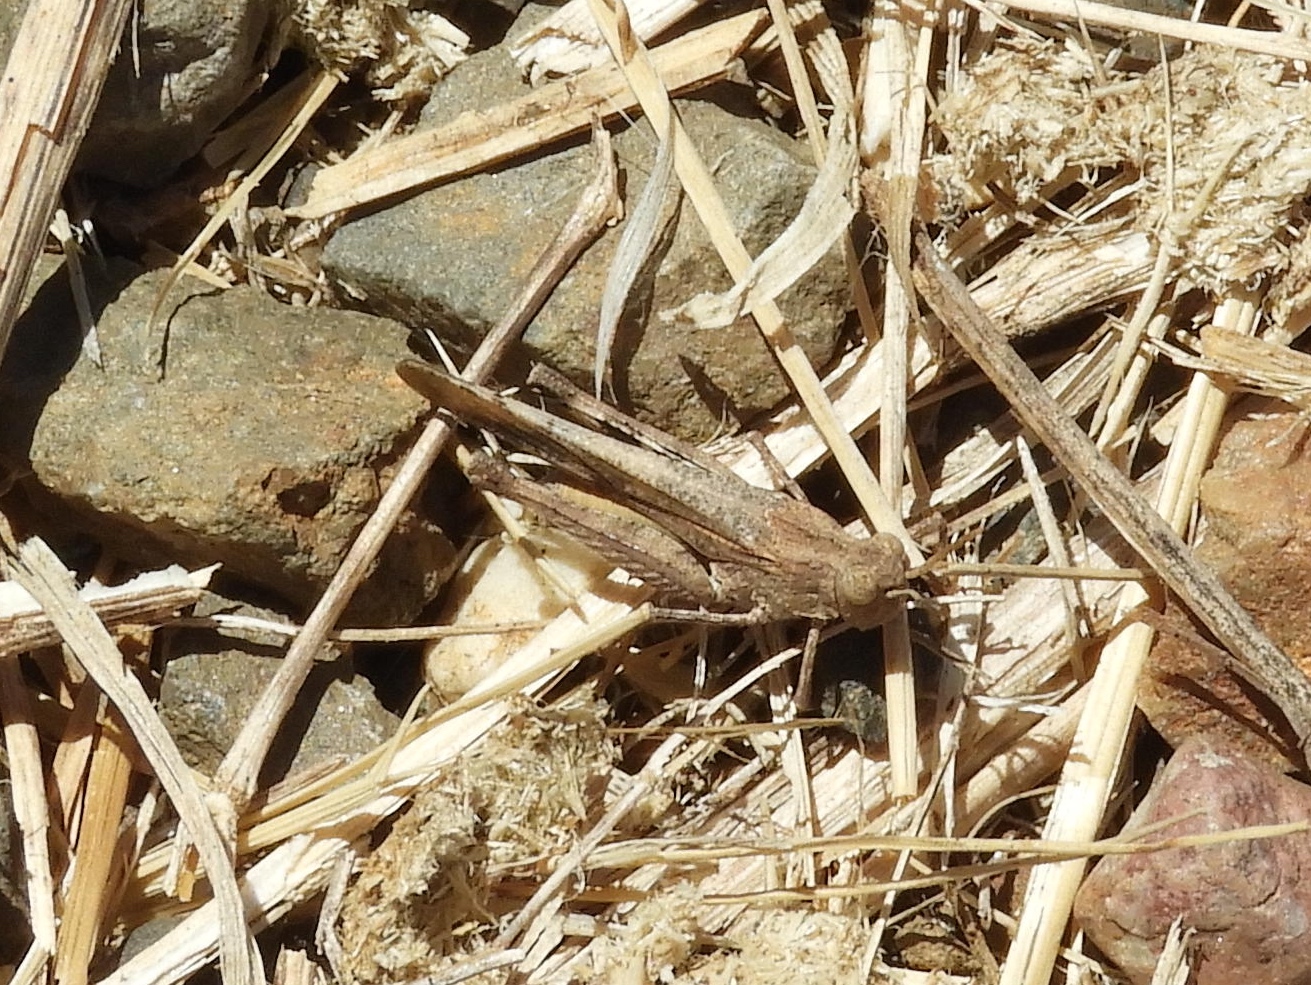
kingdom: Animalia
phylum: Arthropoda
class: Insecta
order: Orthoptera
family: Acrididae
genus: Lactista
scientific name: Lactista elota
